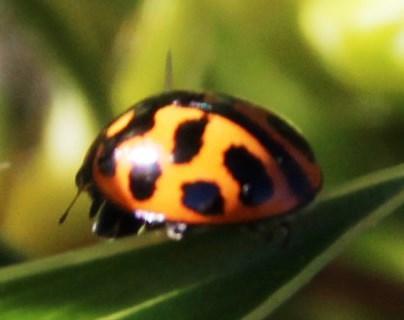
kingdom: Animalia
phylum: Arthropoda
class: Insecta
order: Coleoptera
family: Coccinellidae
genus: Lioadalia
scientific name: Lioadalia flavomaculata
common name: Ladybird beetle
